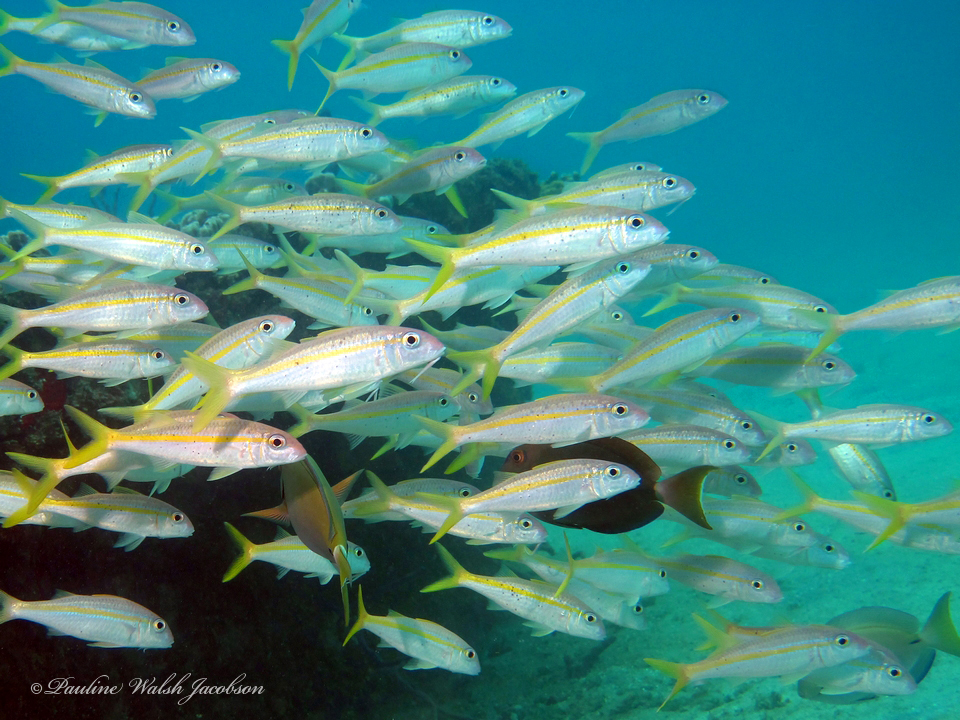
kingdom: Animalia
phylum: Chordata
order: Perciformes
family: Mullidae
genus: Mulloidichthys
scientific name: Mulloidichthys martinicus
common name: Yellow goatfish
